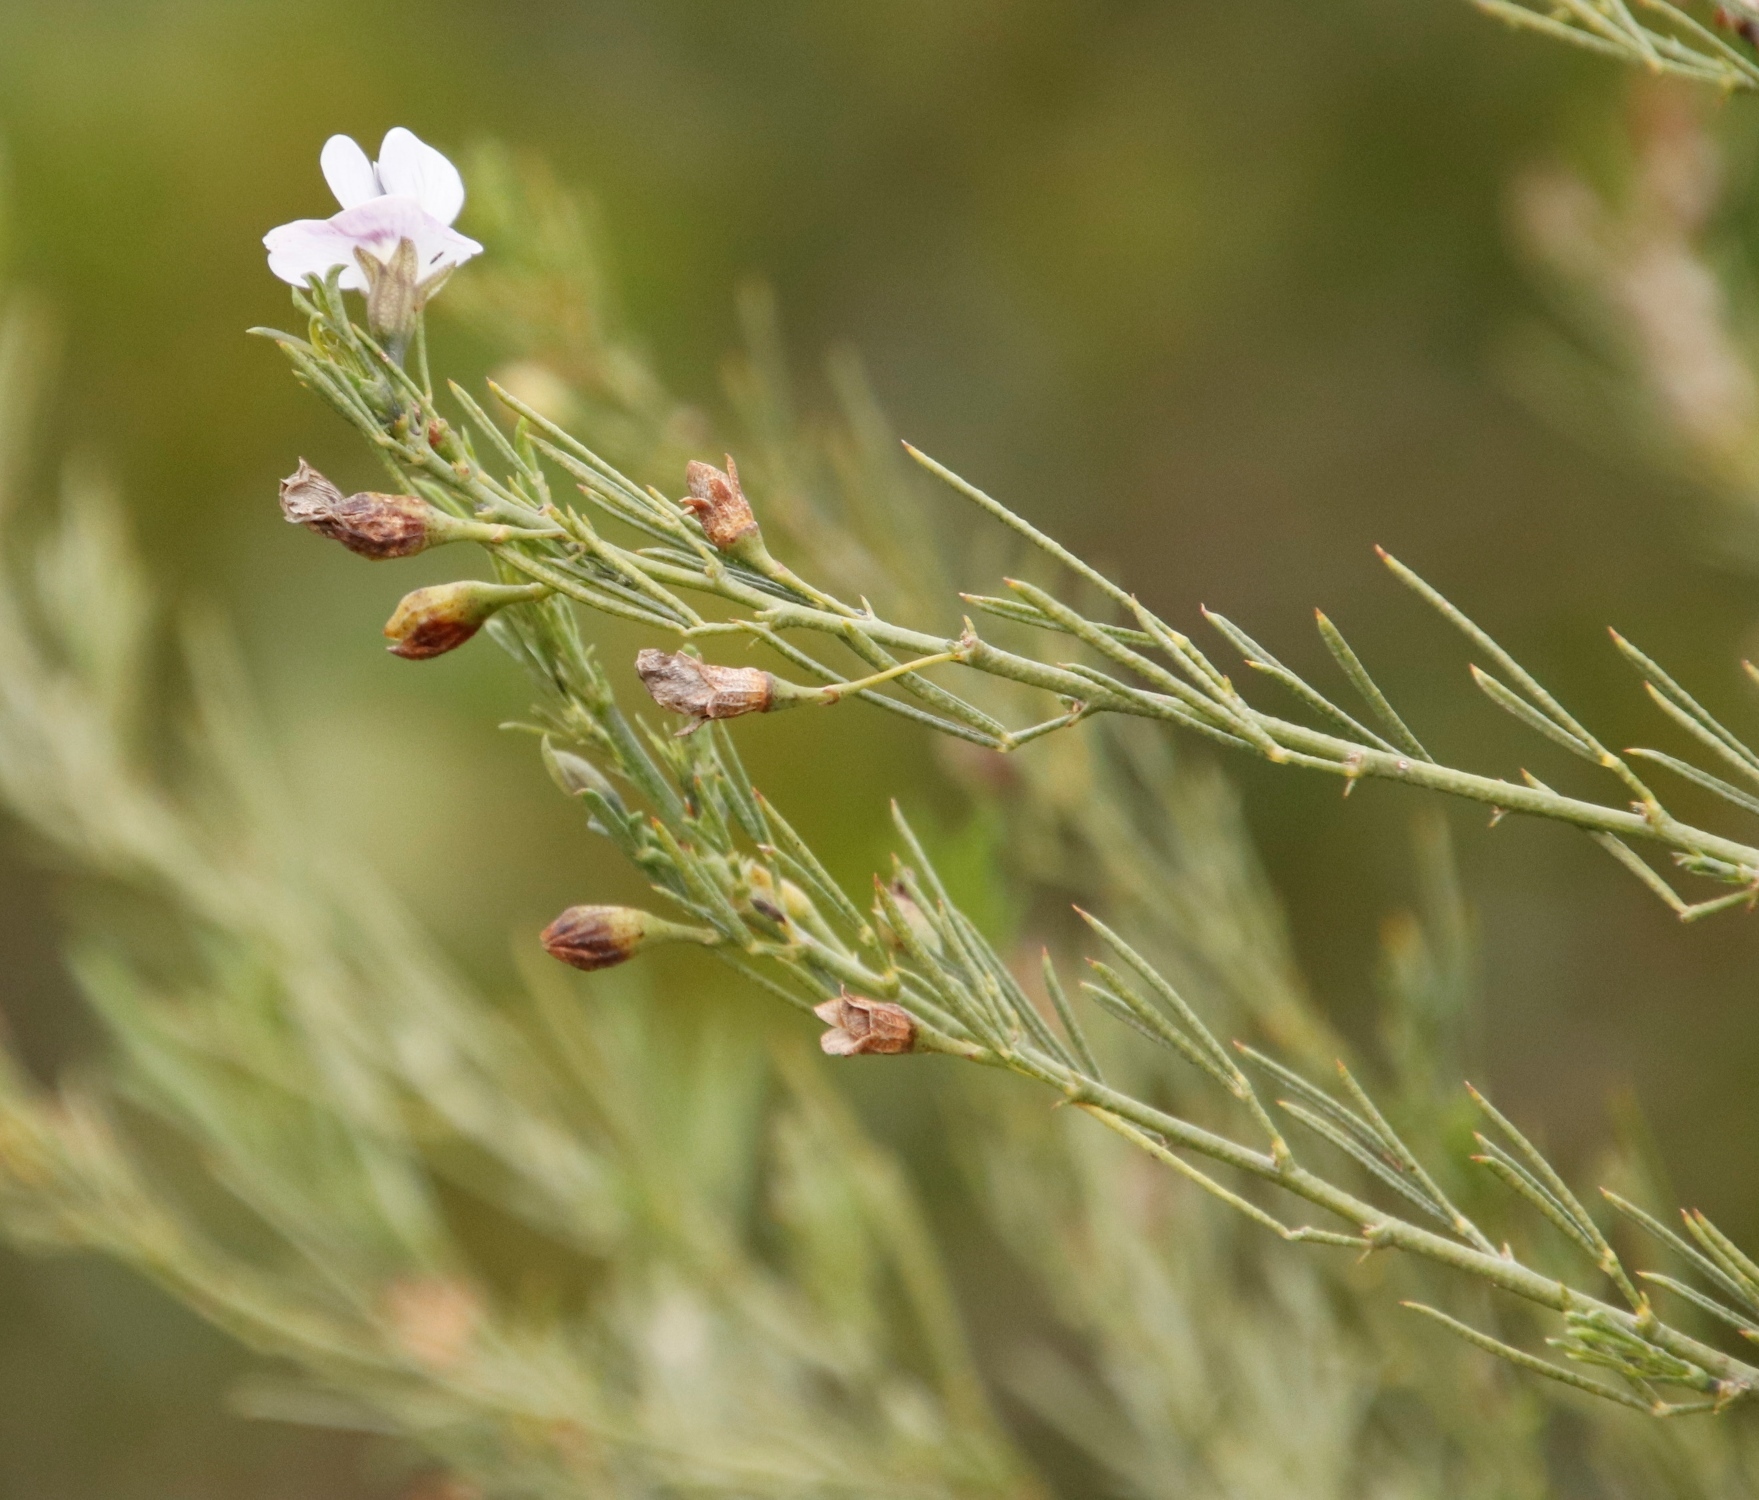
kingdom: Plantae
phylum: Tracheophyta
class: Magnoliopsida
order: Fabales
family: Fabaceae
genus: Psoralea
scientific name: Psoralea sordida
